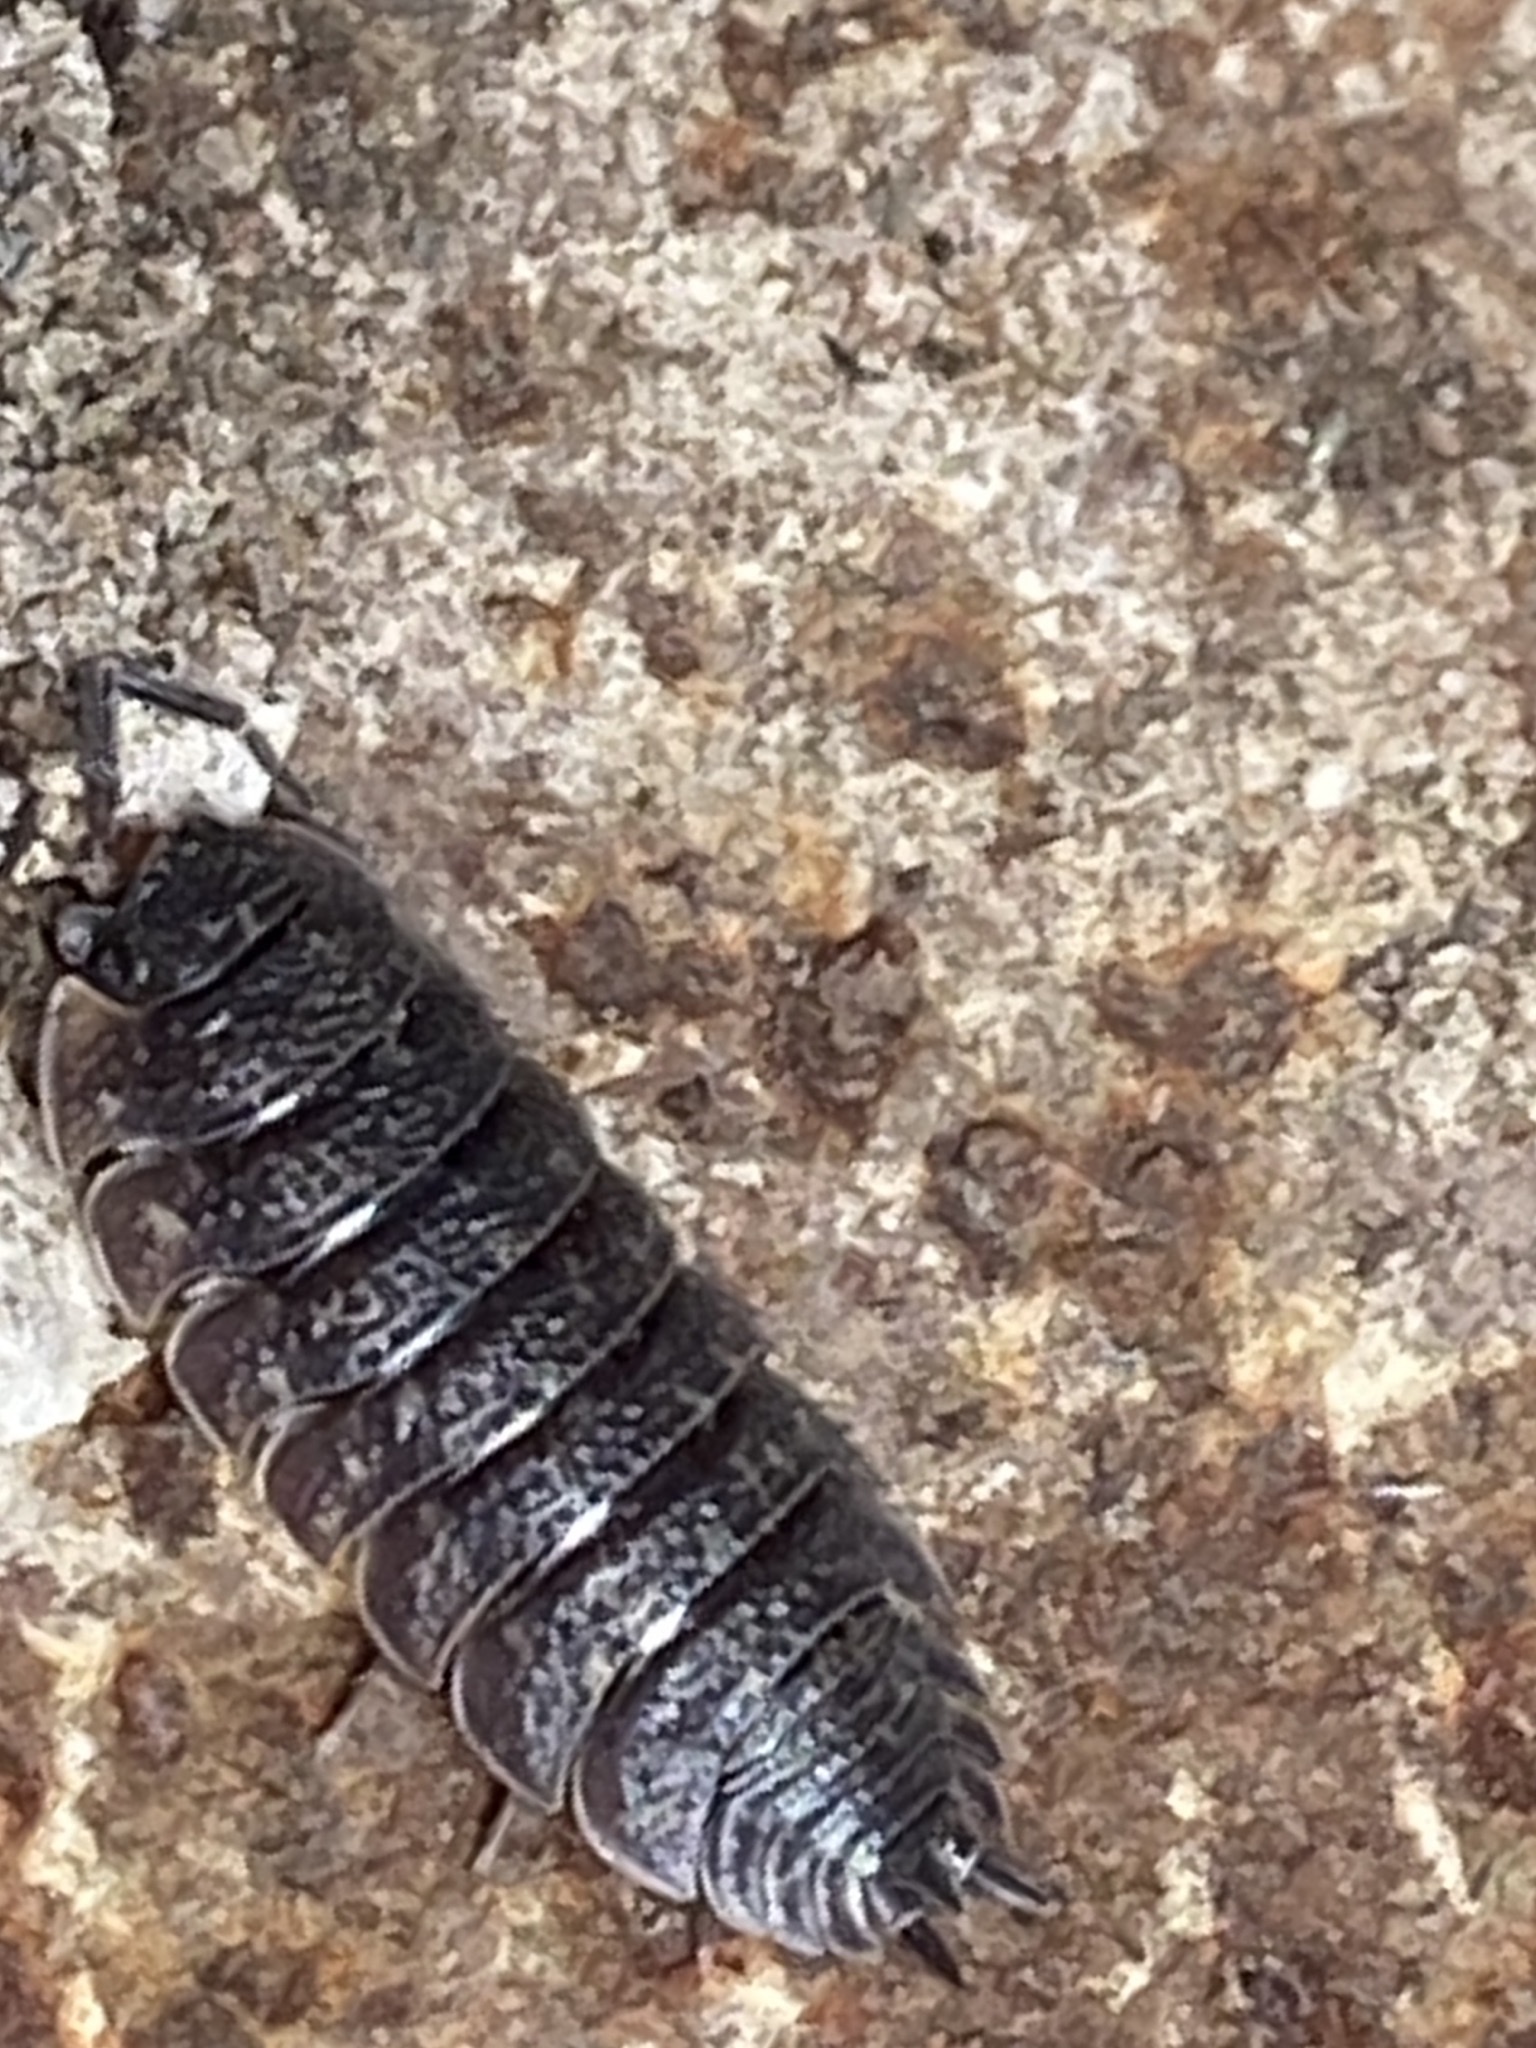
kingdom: Animalia
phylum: Arthropoda
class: Malacostraca
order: Isopoda
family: Porcellionidae
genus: Porcellio
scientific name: Porcellio scaber
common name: Common rough woodlouse
